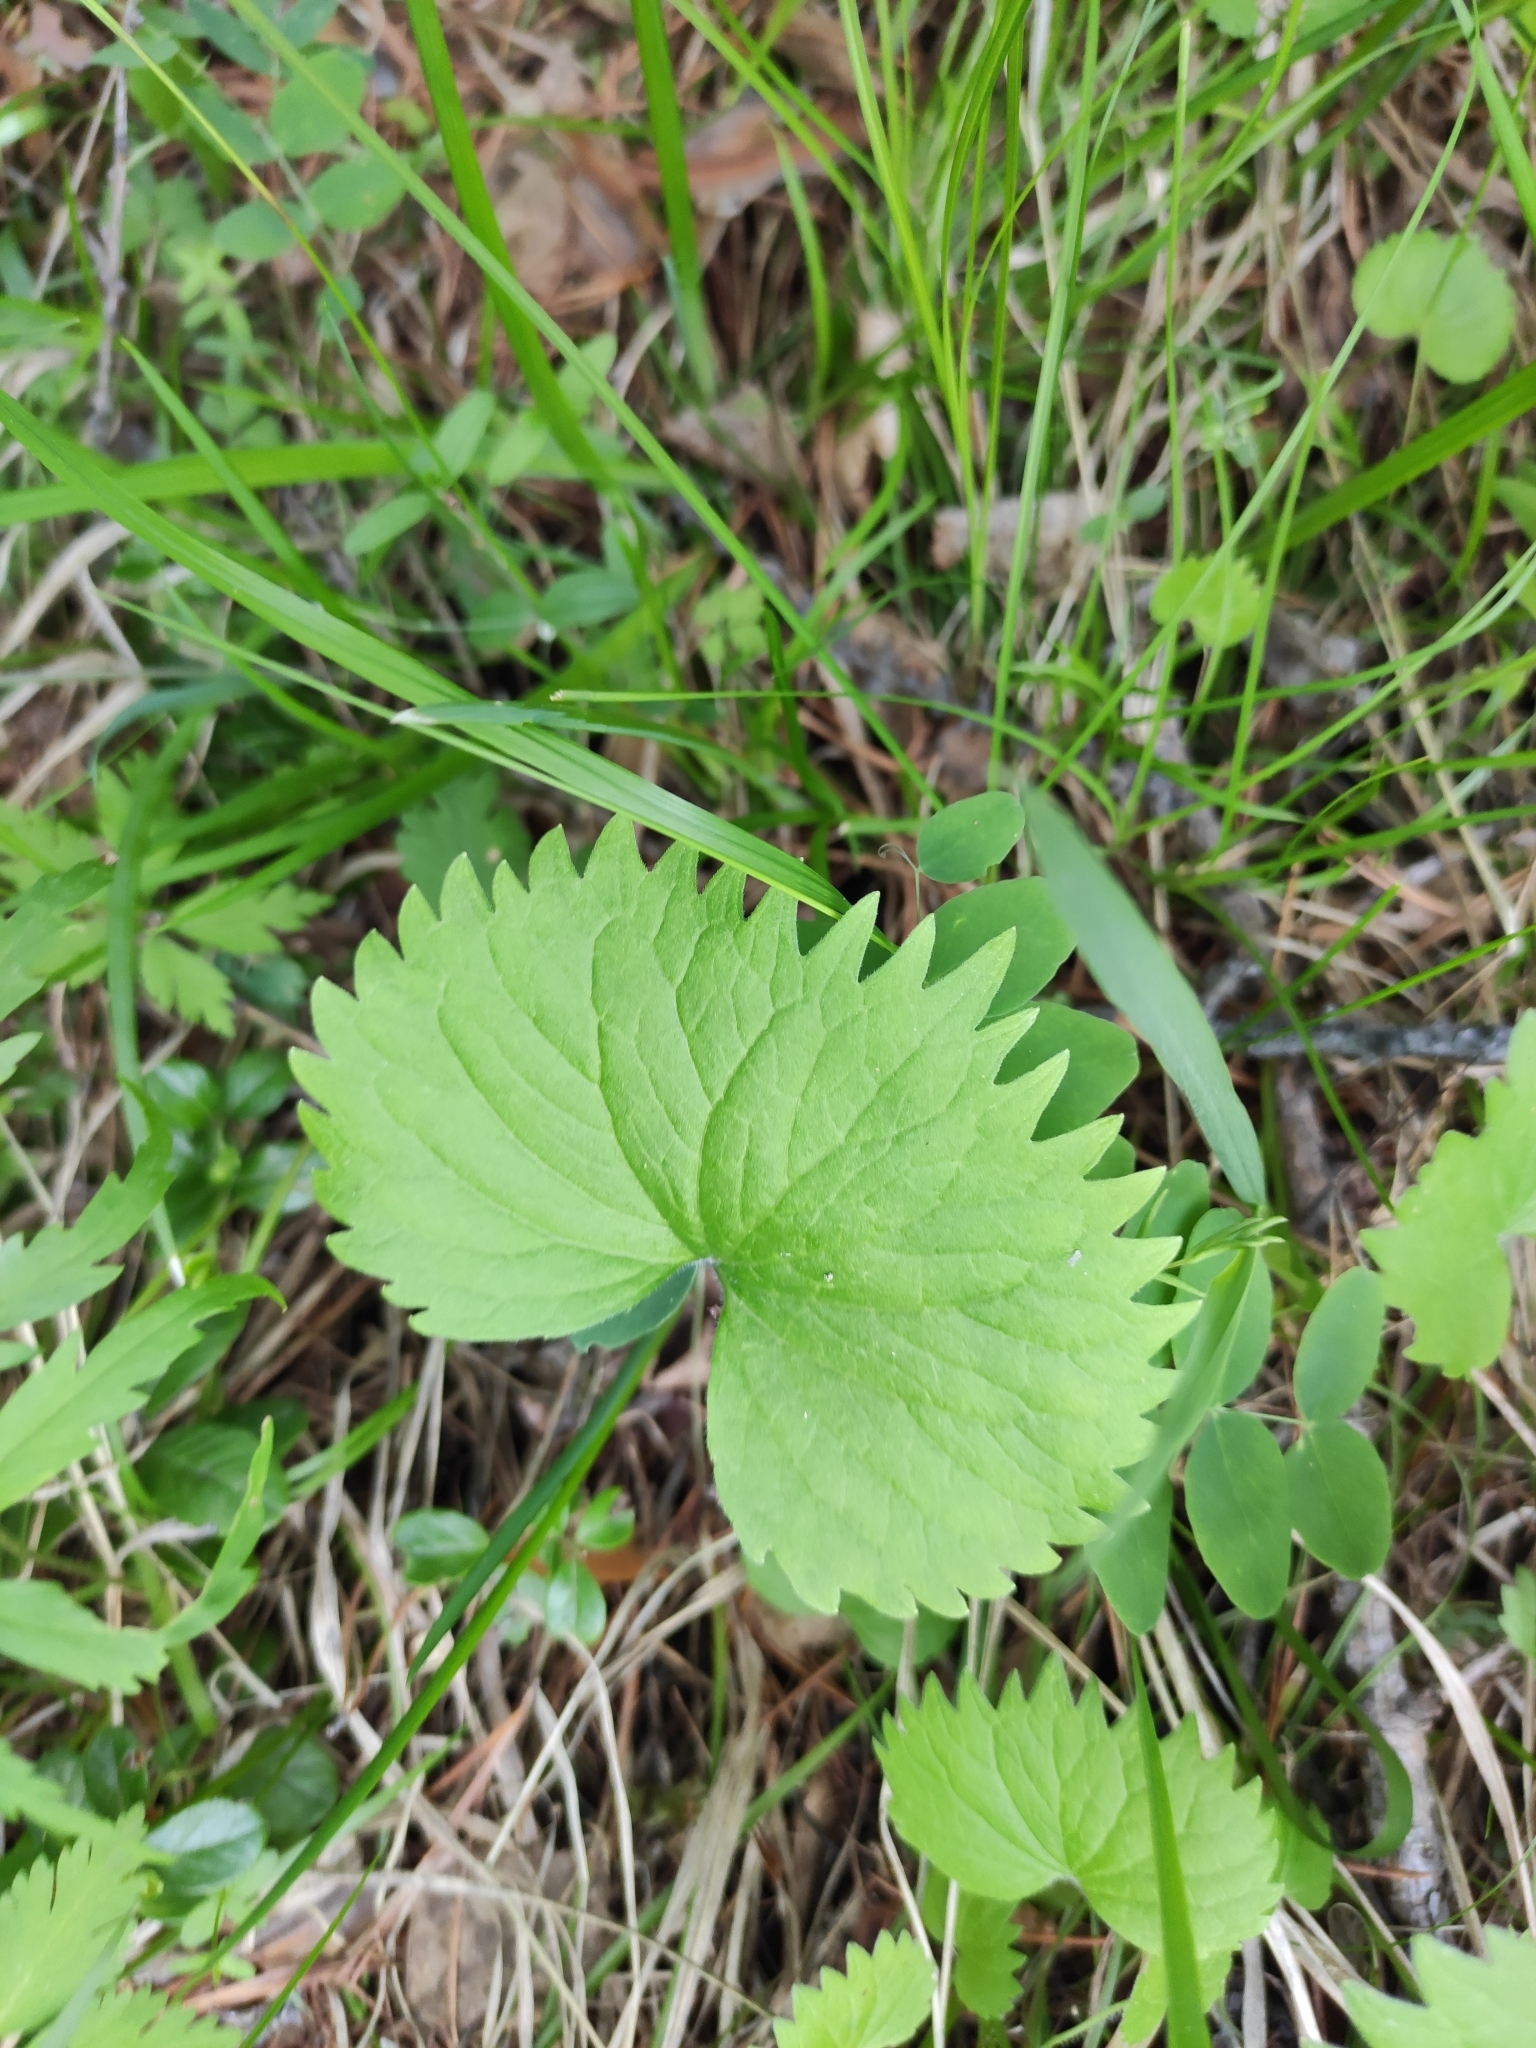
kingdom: Plantae
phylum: Tracheophyta
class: Magnoliopsida
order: Malpighiales
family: Violaceae
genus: Viola
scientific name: Viola uniflora
